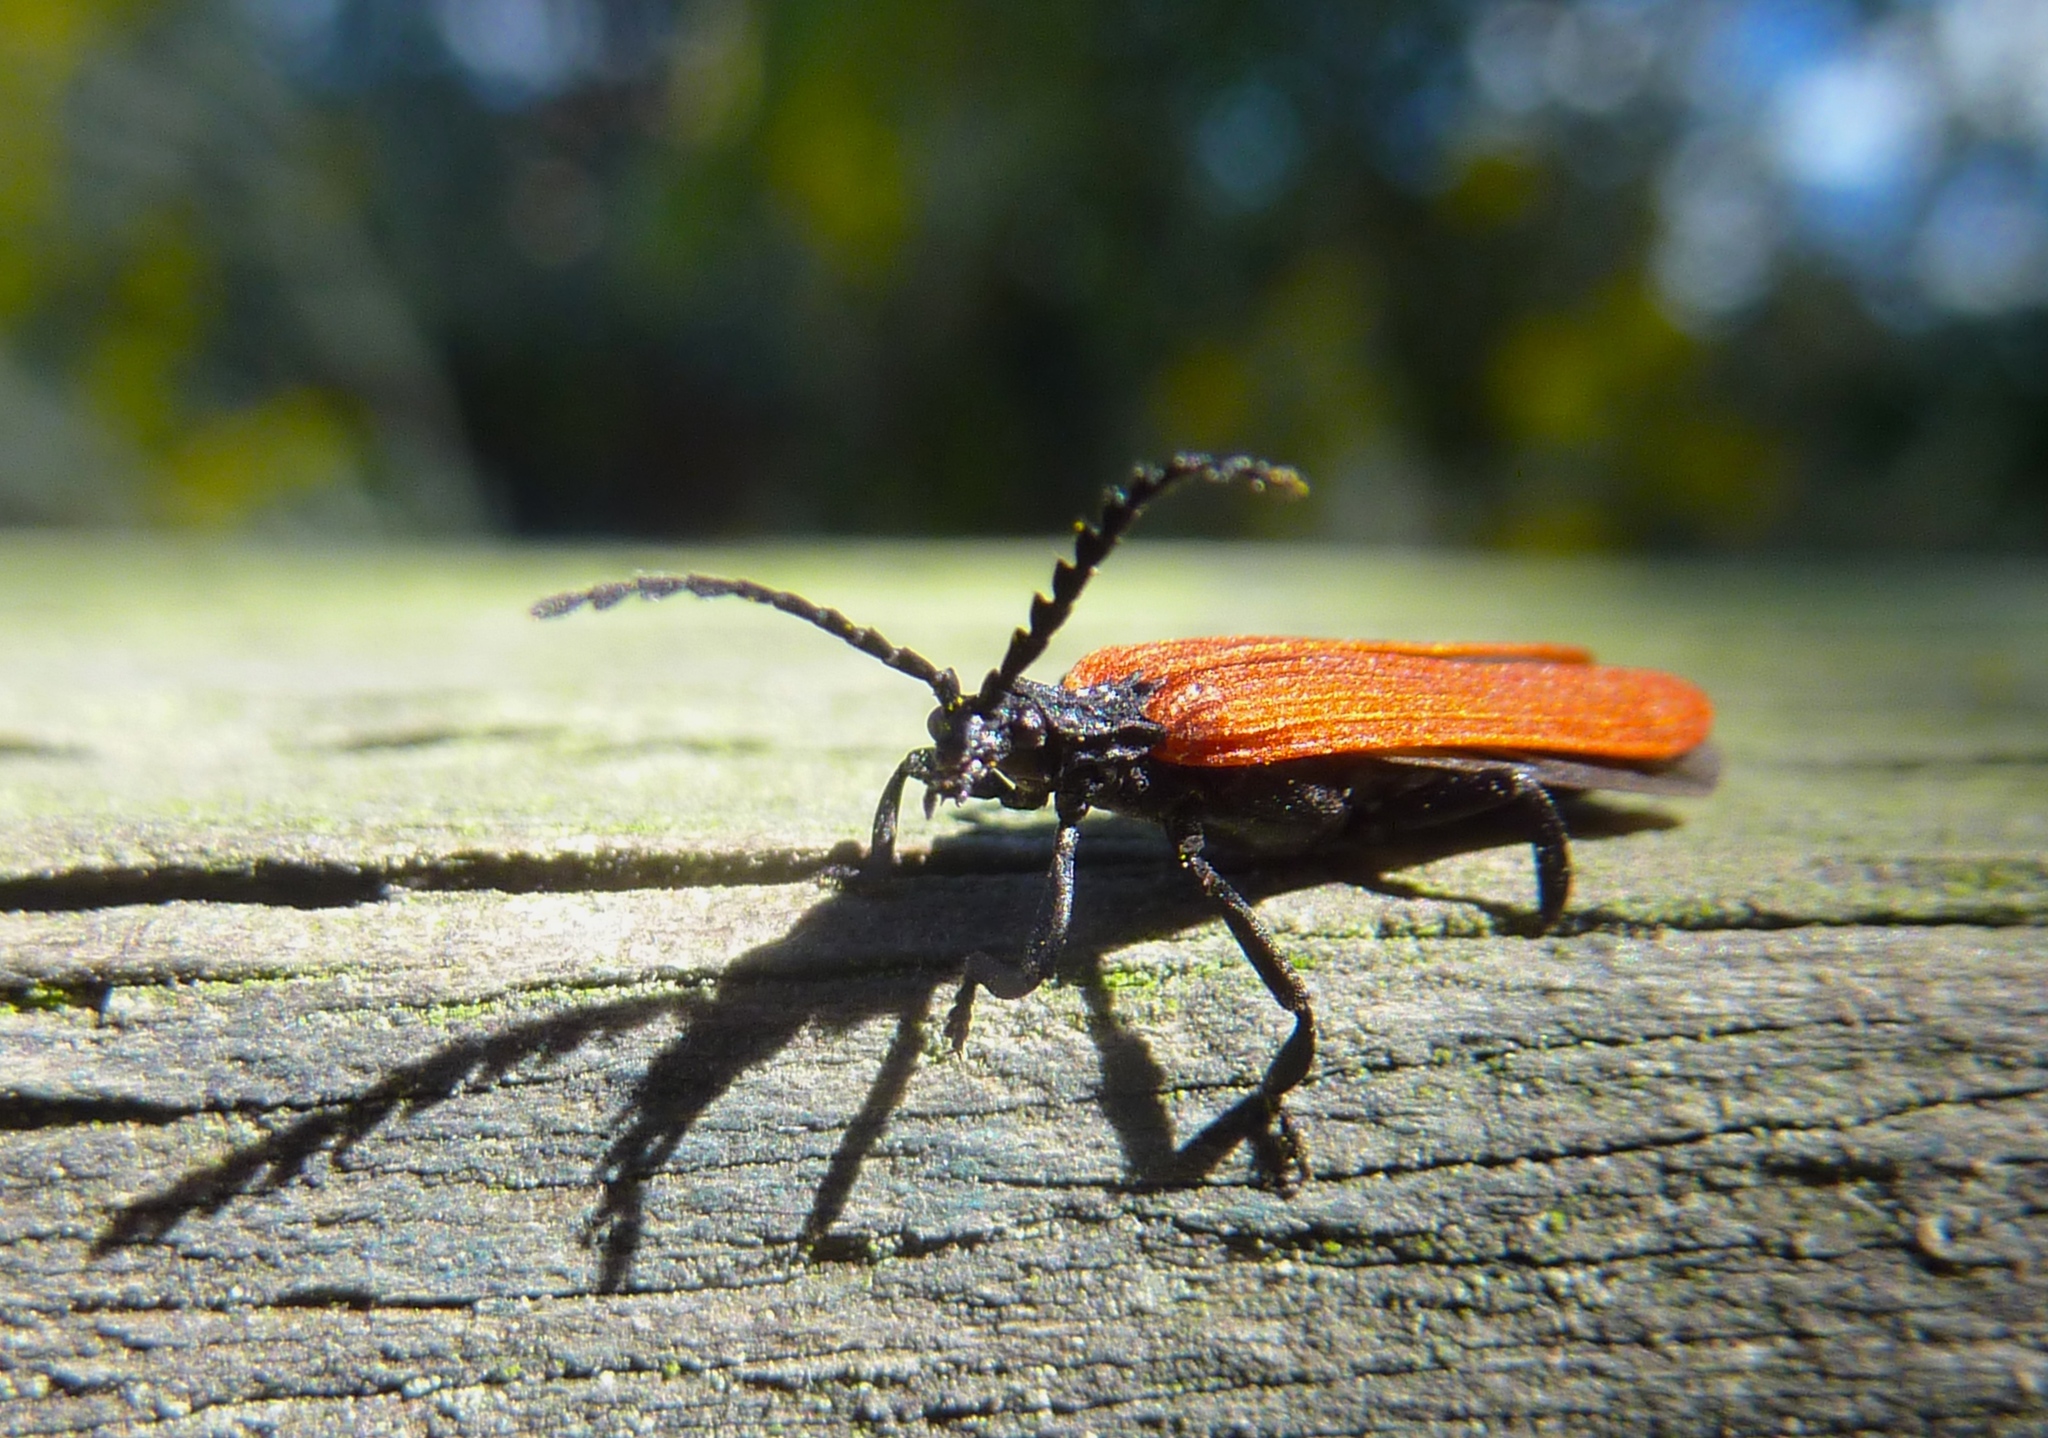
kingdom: Animalia
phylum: Arthropoda
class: Insecta
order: Coleoptera
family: Lycidae
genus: Porrostoma
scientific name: Porrostoma rufipenne
